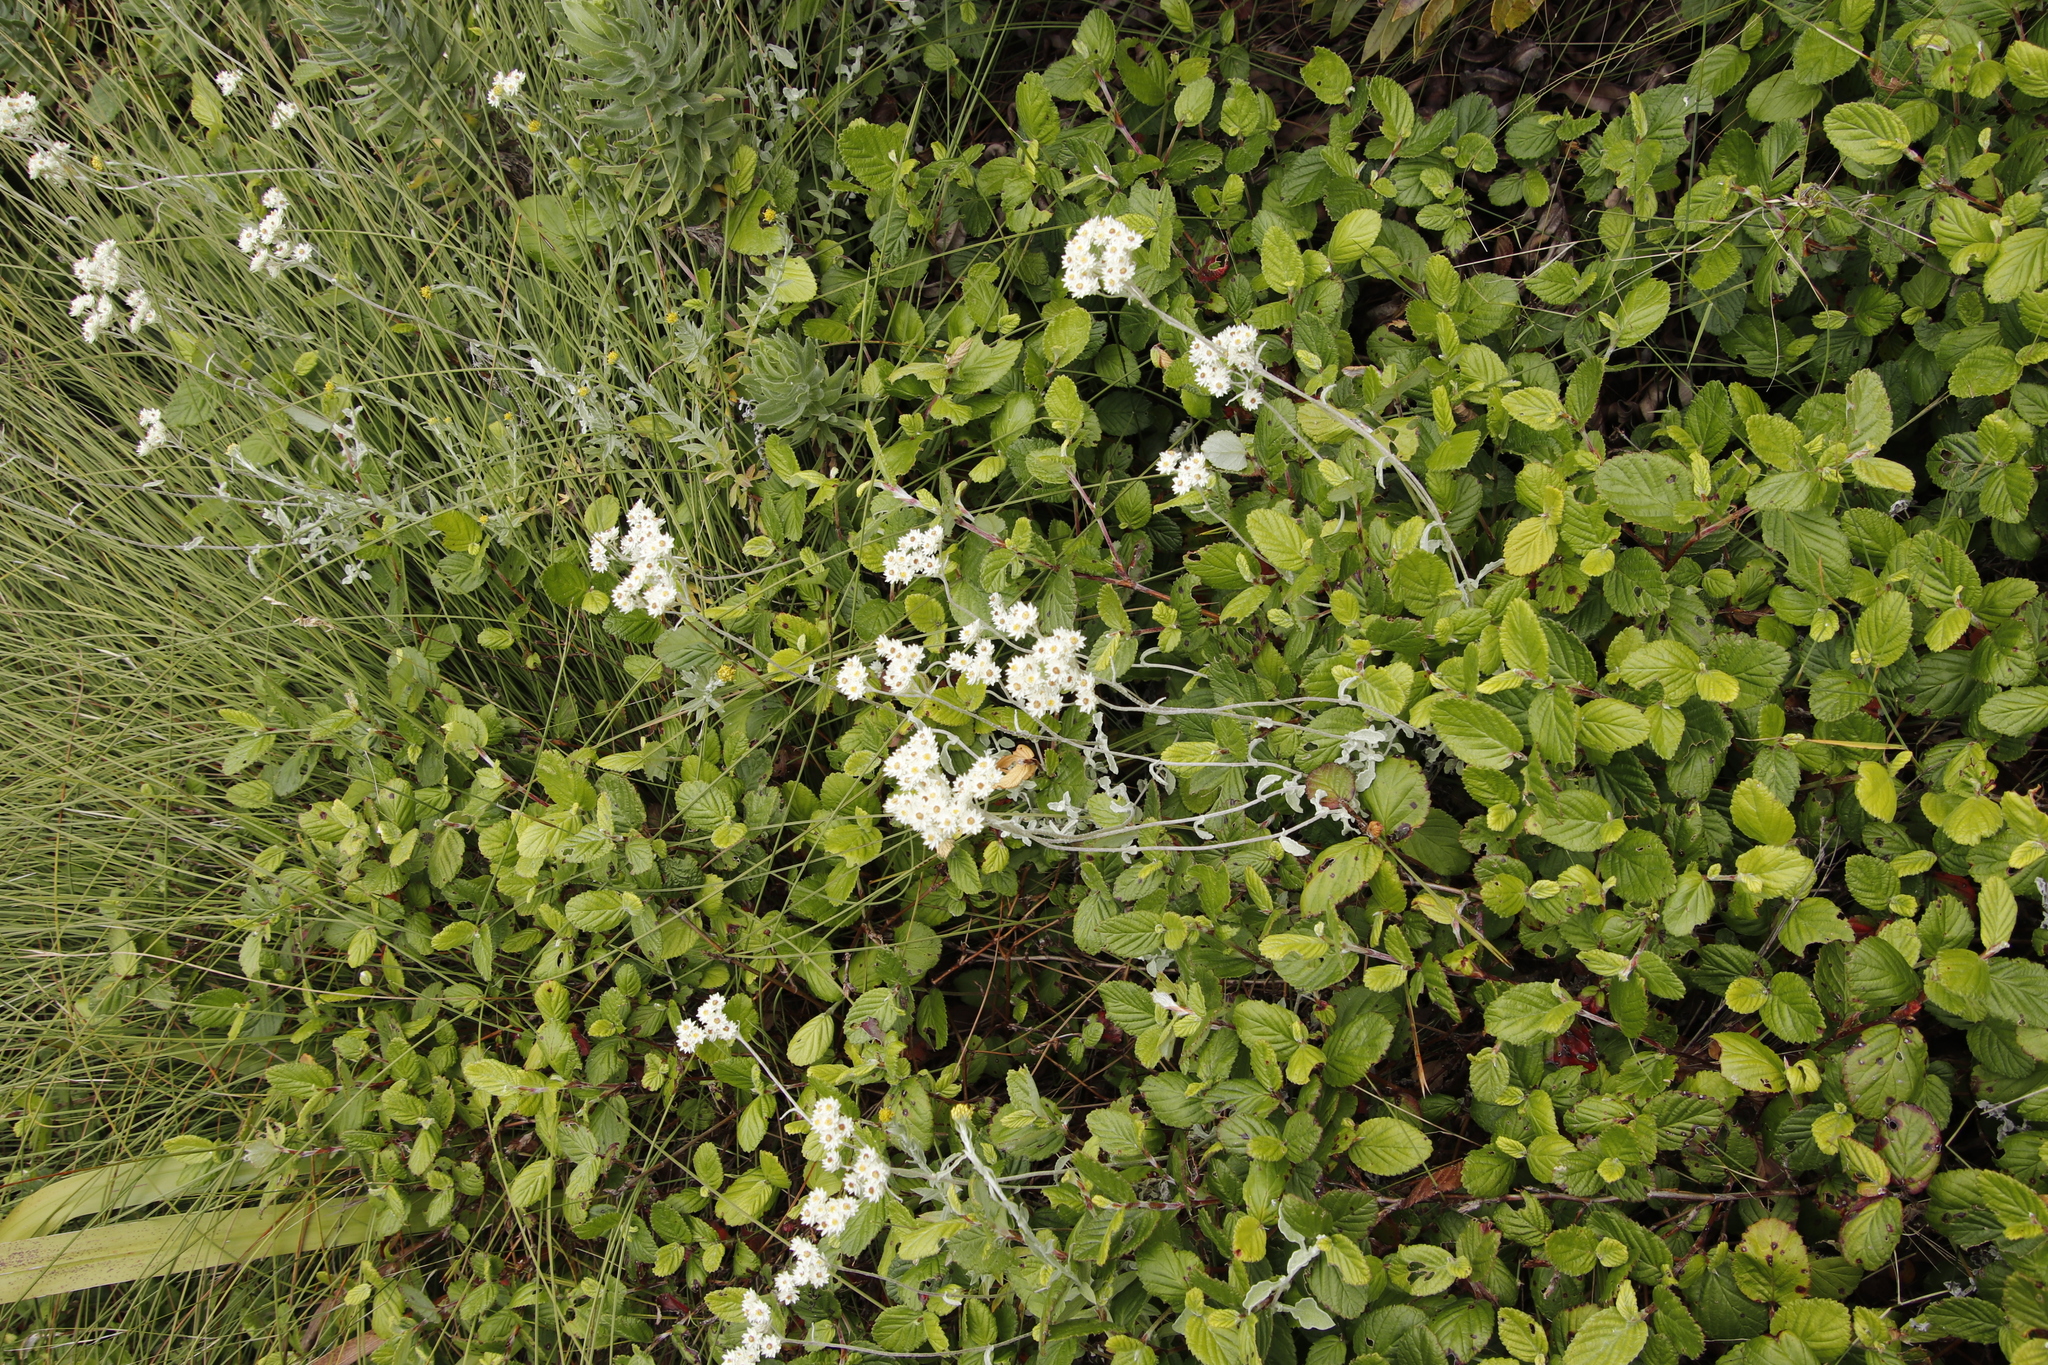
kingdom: Plantae
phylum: Tracheophyta
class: Magnoliopsida
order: Rosales
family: Rosaceae
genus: Cliffortia
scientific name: Cliffortia odorata
